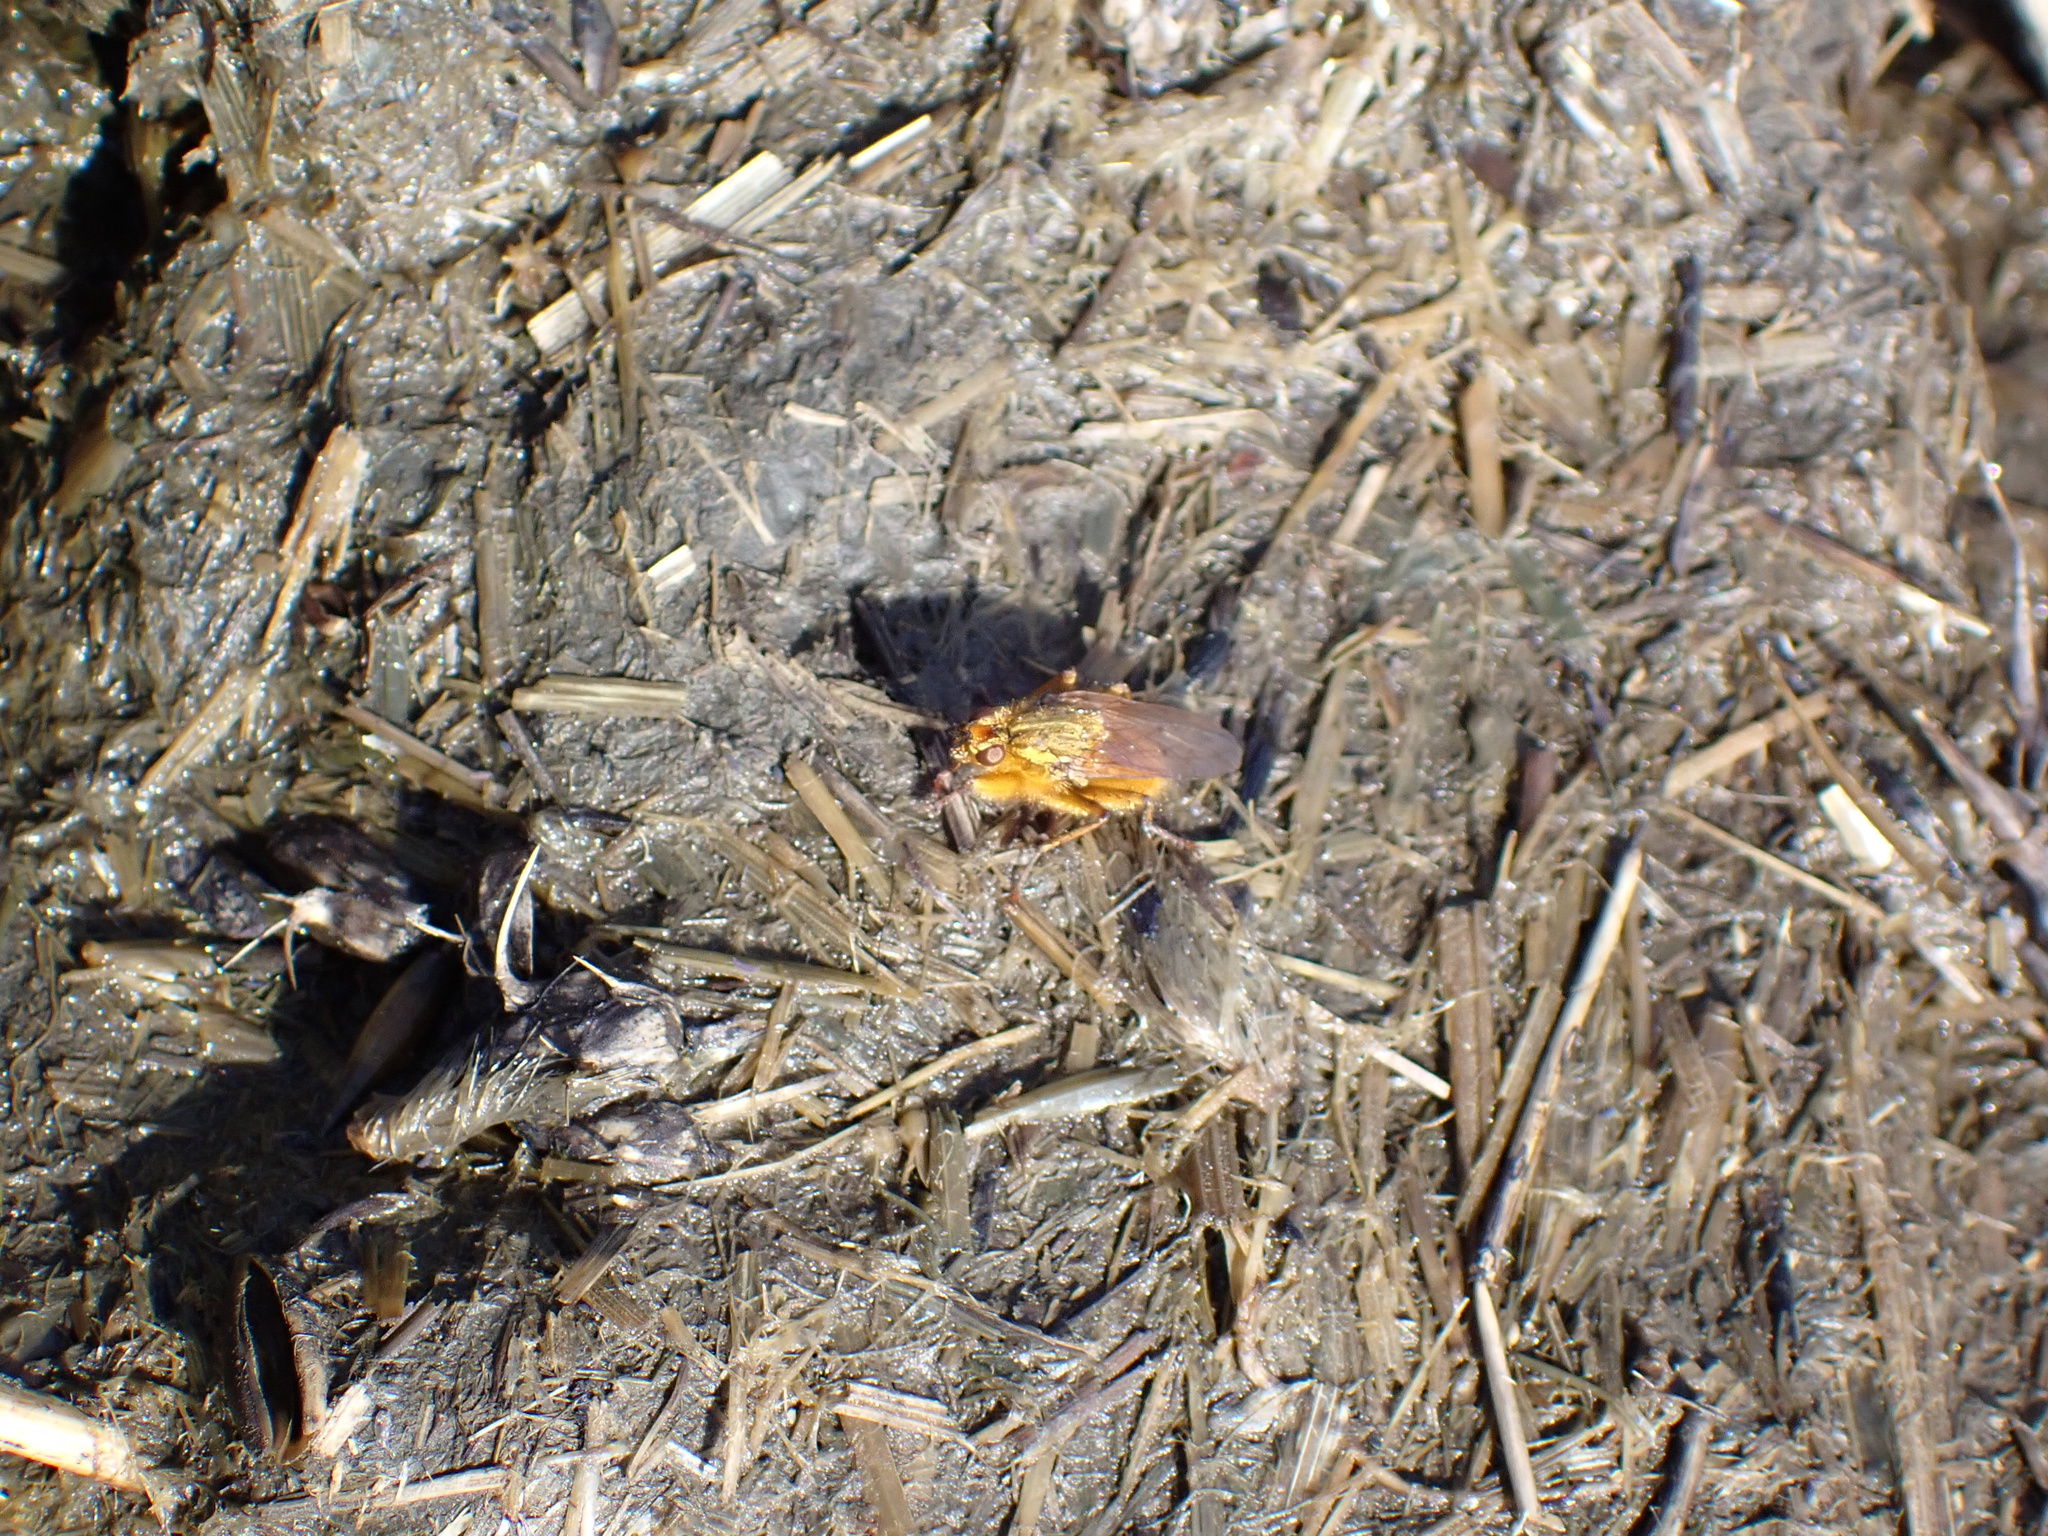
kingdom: Animalia
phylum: Arthropoda
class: Insecta
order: Diptera
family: Scathophagidae
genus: Scathophaga
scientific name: Scathophaga stercoraria
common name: Yellow dung fly
